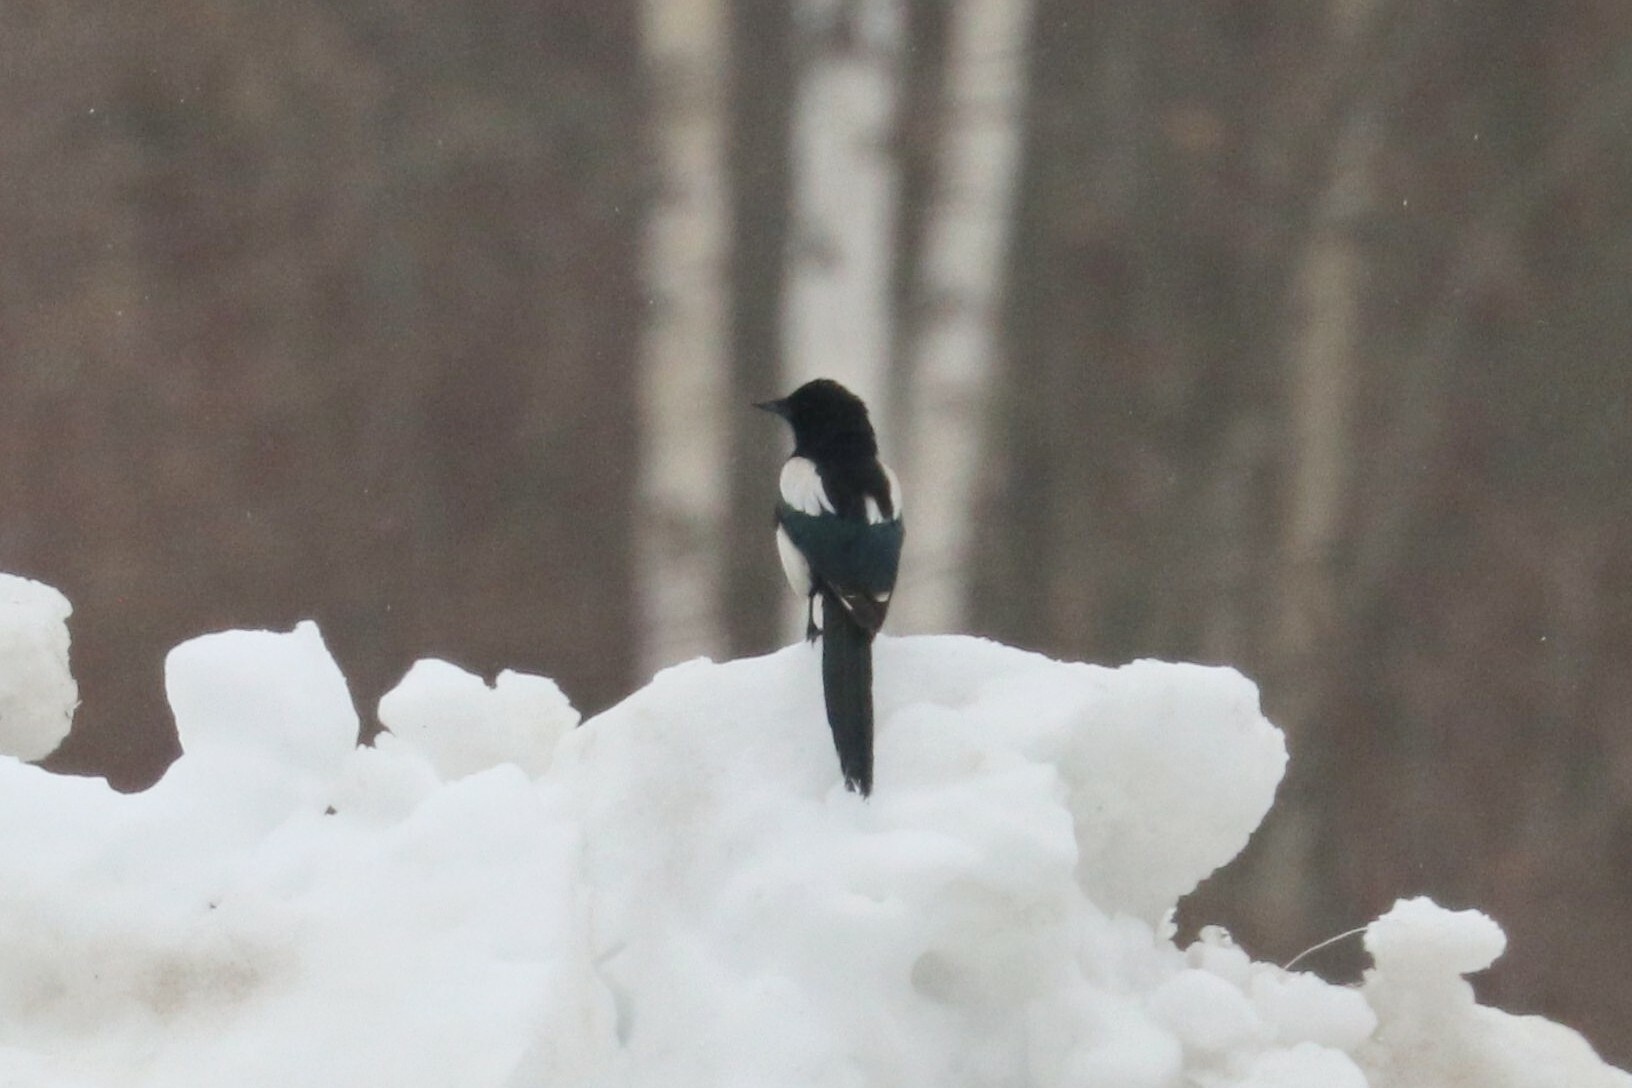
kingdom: Animalia
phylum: Chordata
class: Aves
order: Passeriformes
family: Corvidae
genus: Pica
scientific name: Pica pica
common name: Eurasian magpie
